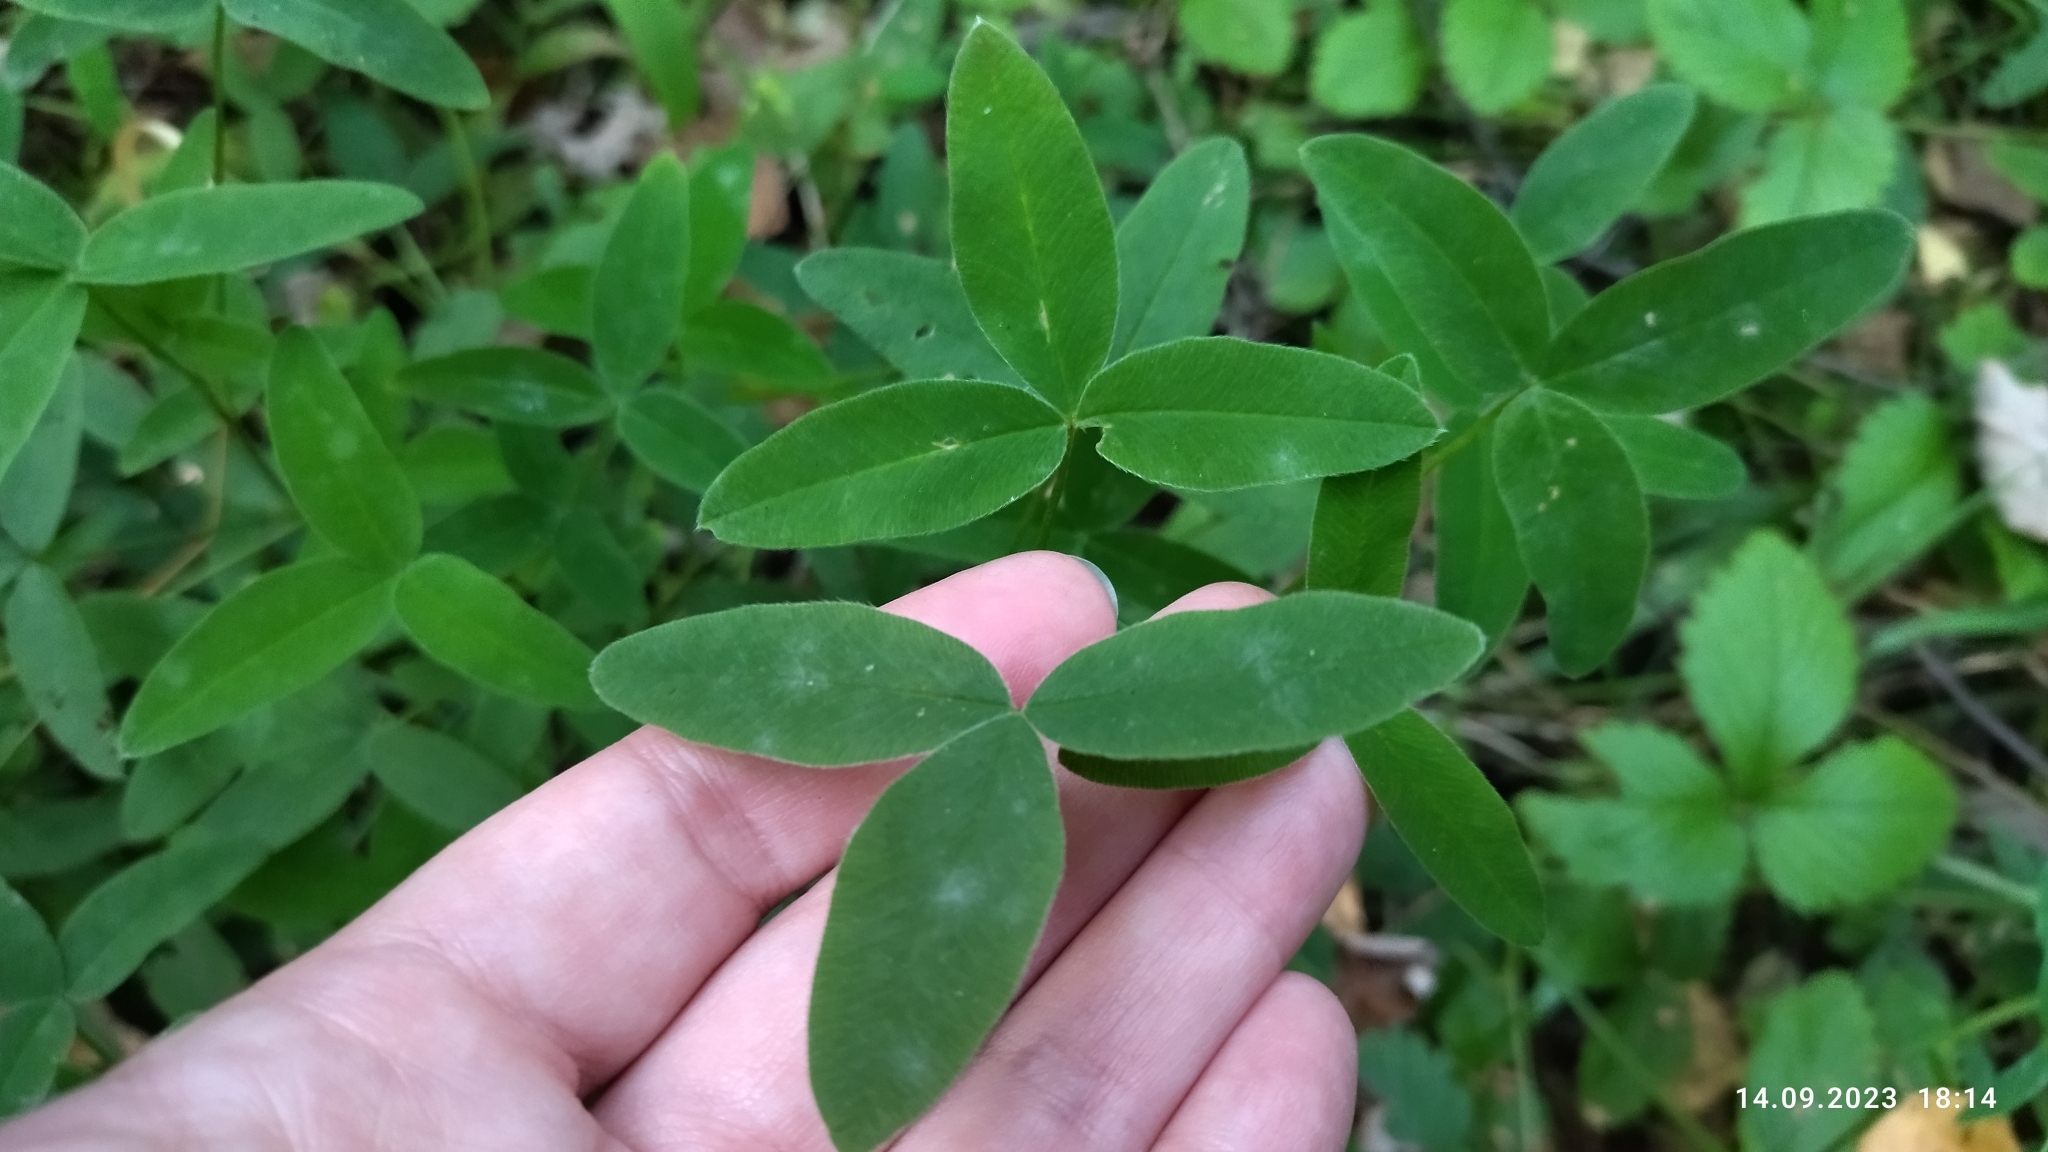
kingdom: Plantae
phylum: Tracheophyta
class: Magnoliopsida
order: Fabales
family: Fabaceae
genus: Trifolium
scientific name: Trifolium medium
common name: Zigzag clover
